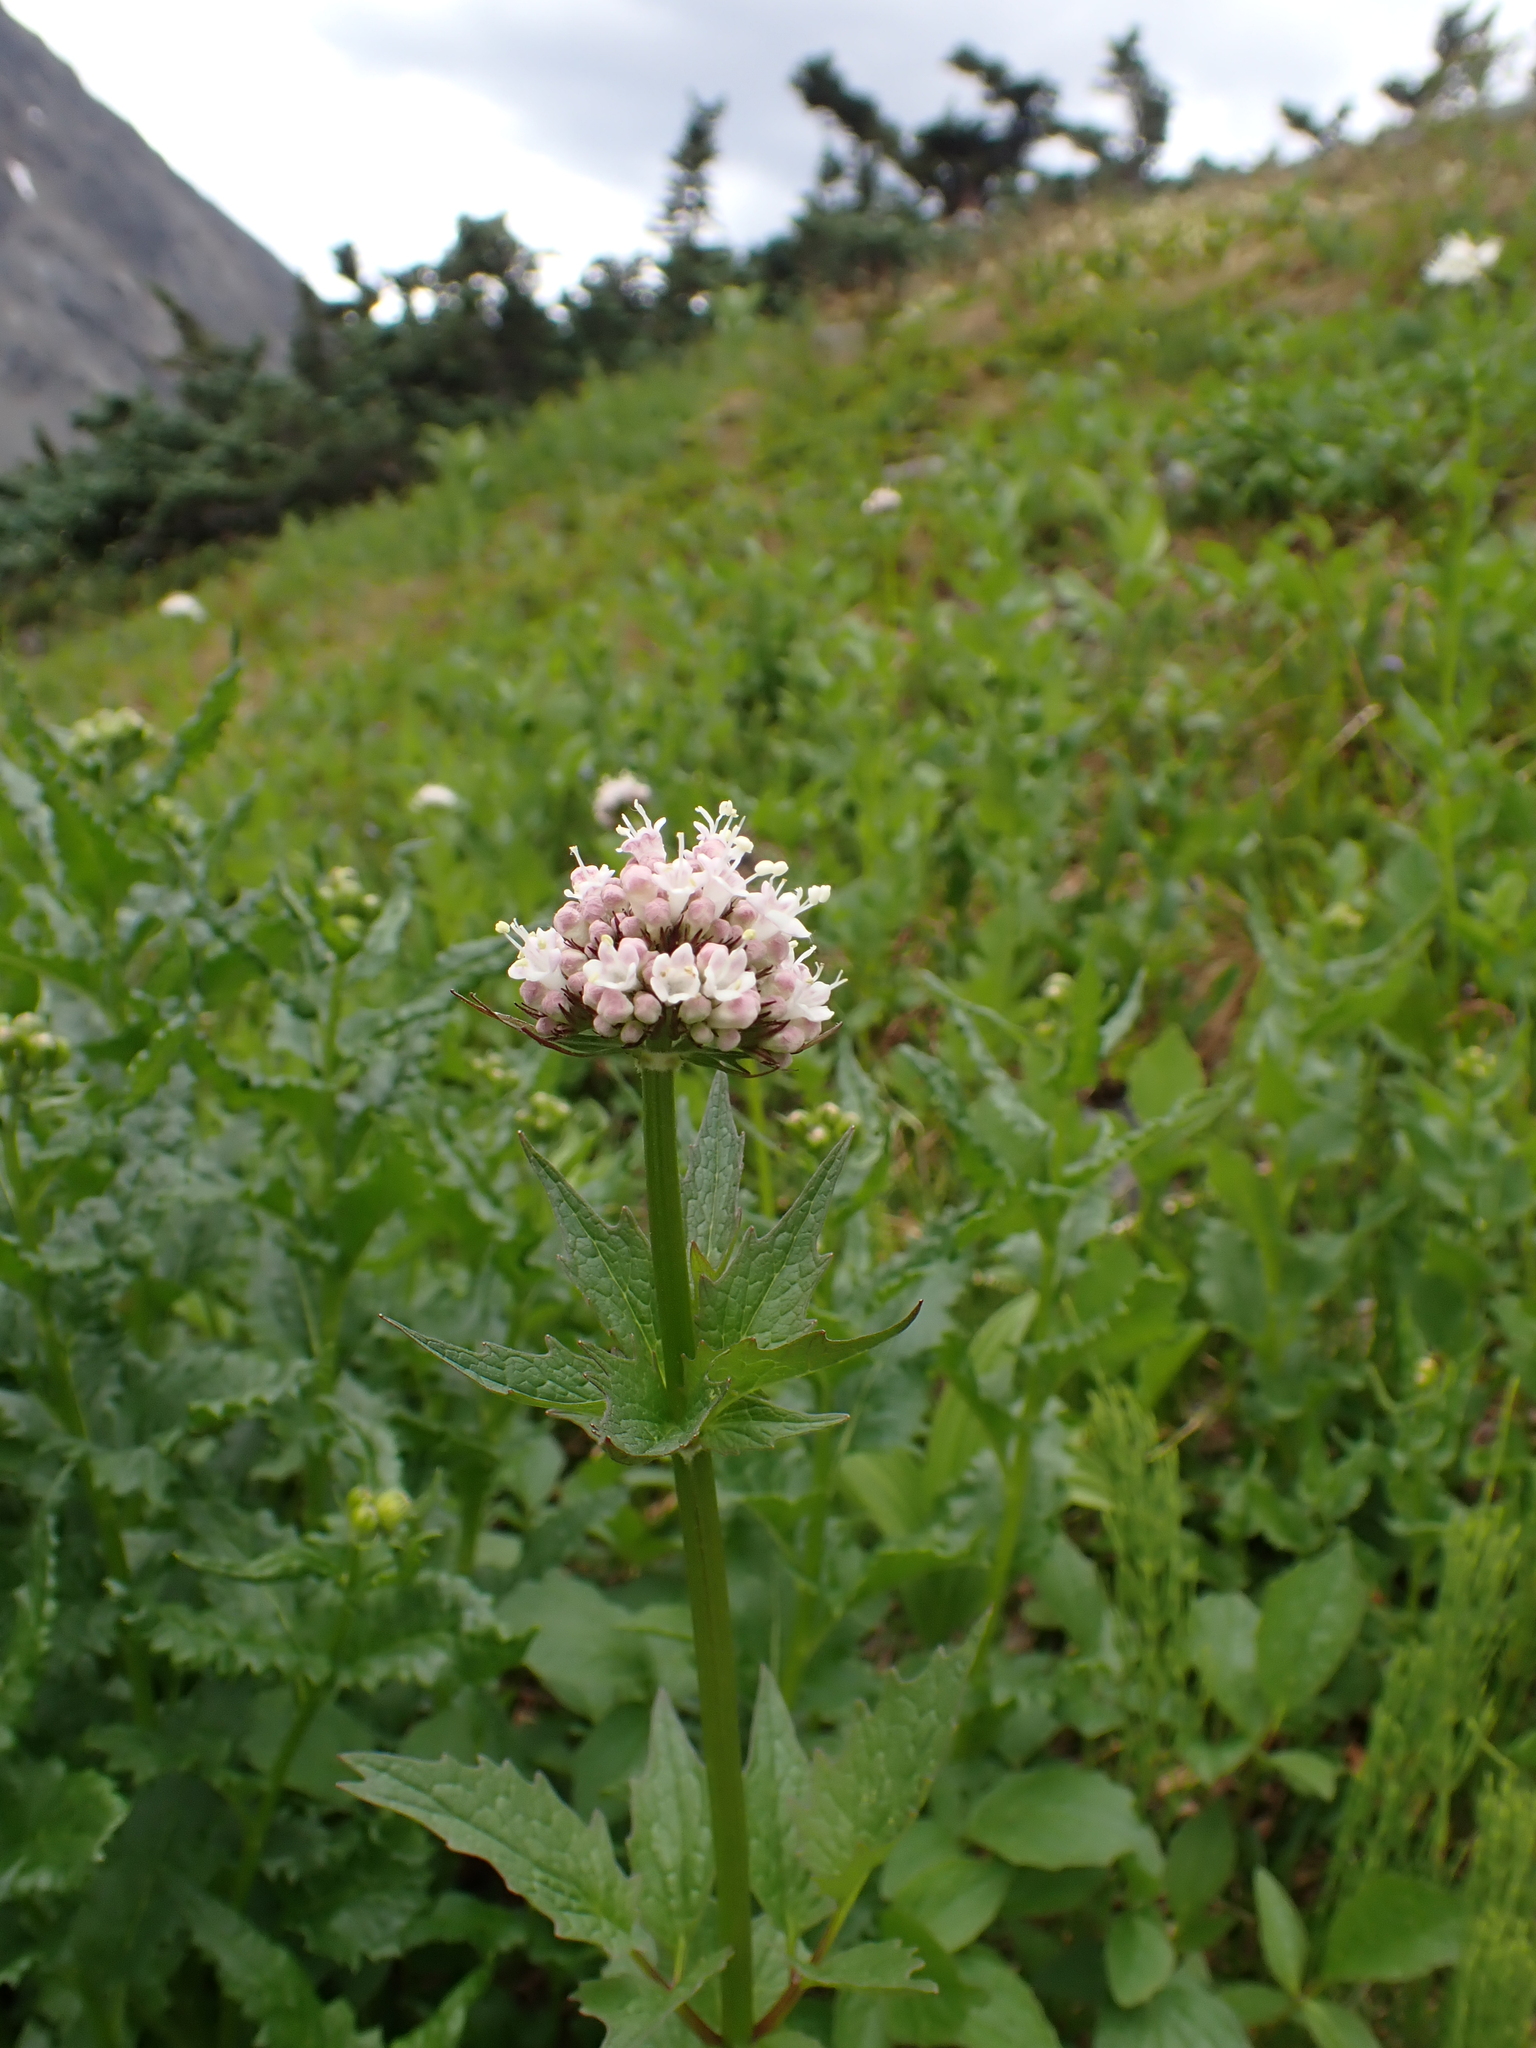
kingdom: Plantae
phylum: Tracheophyta
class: Magnoliopsida
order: Dipsacales
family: Caprifoliaceae
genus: Valeriana
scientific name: Valeriana sitchensis
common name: Pacific valerian
